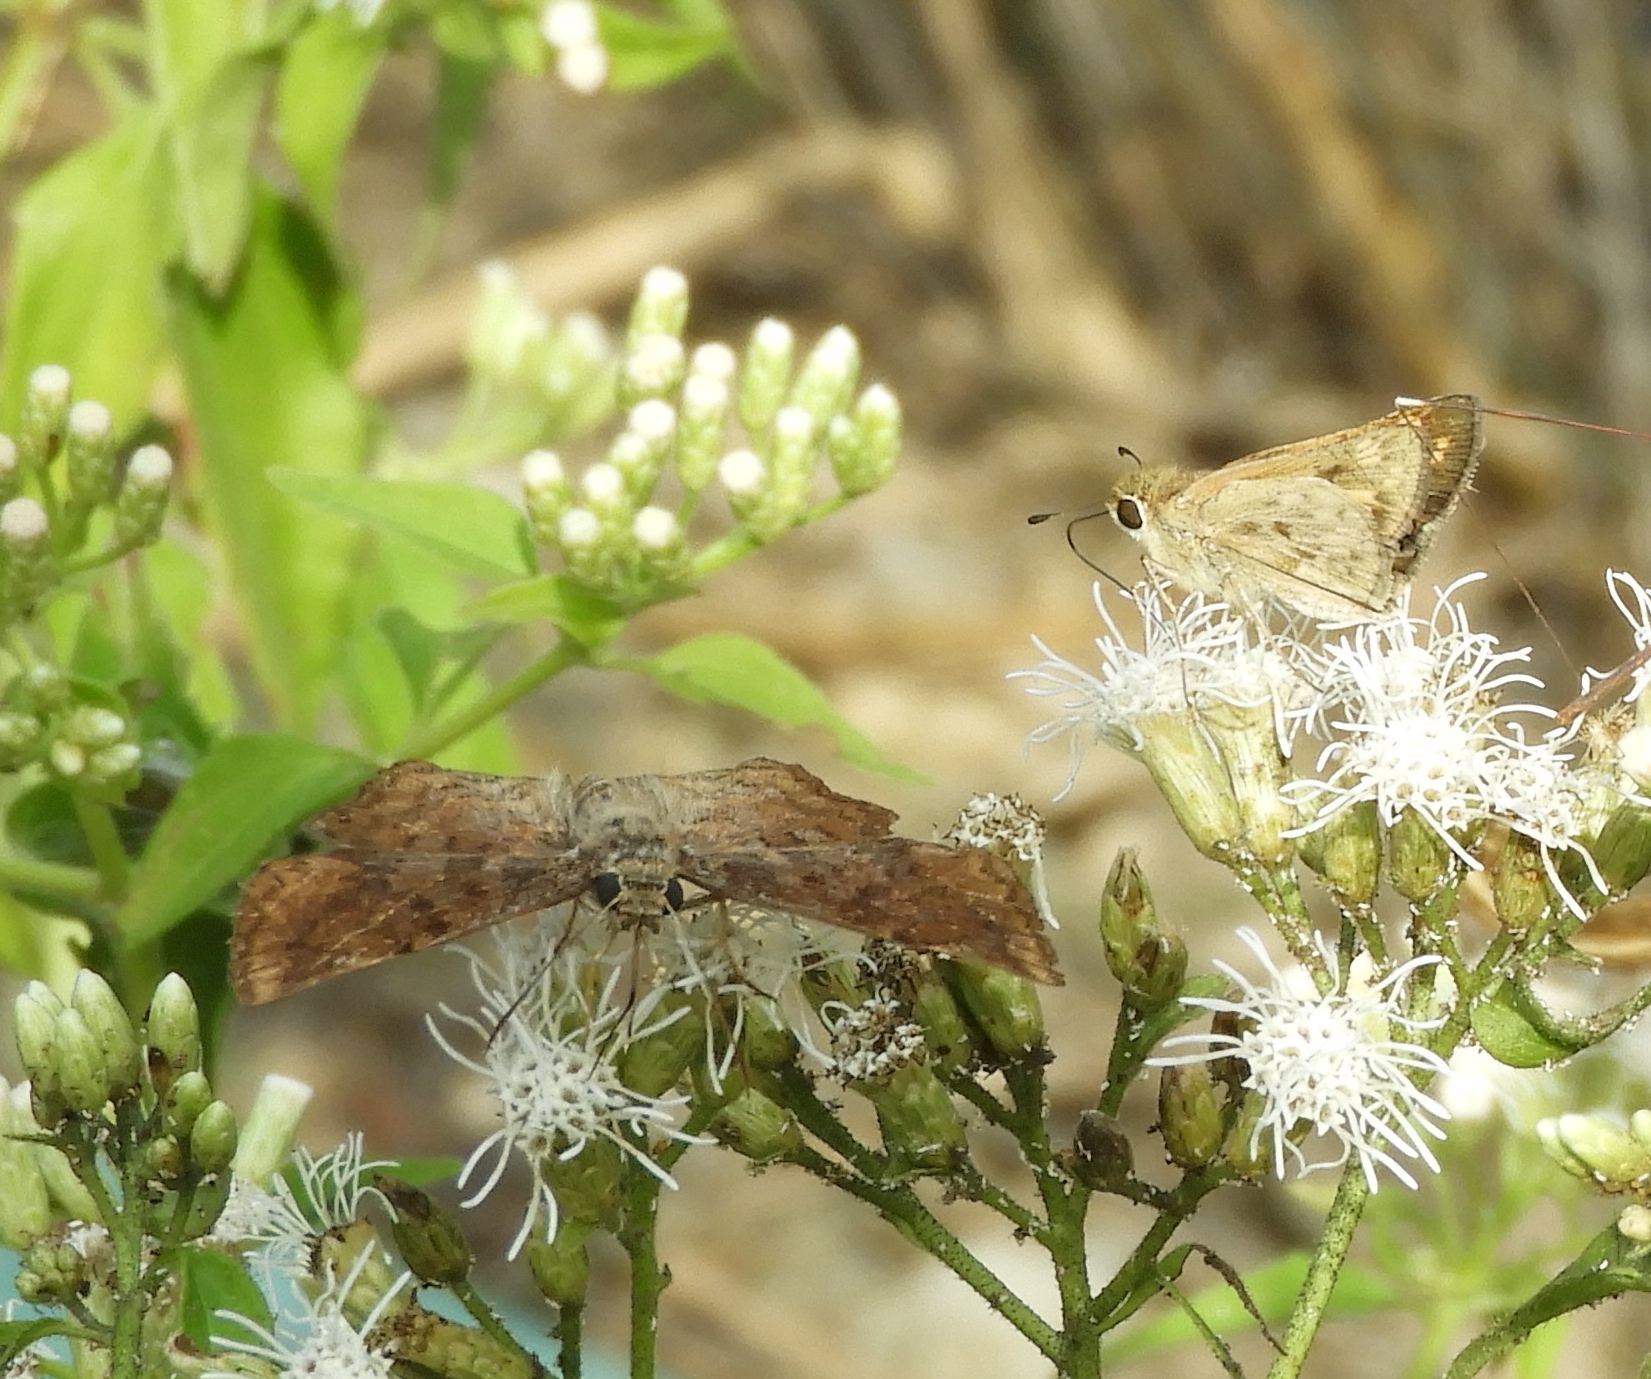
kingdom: Animalia
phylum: Arthropoda
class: Insecta
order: Lepidoptera
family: Hesperiidae
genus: Antigonus
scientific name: Antigonus erosus
